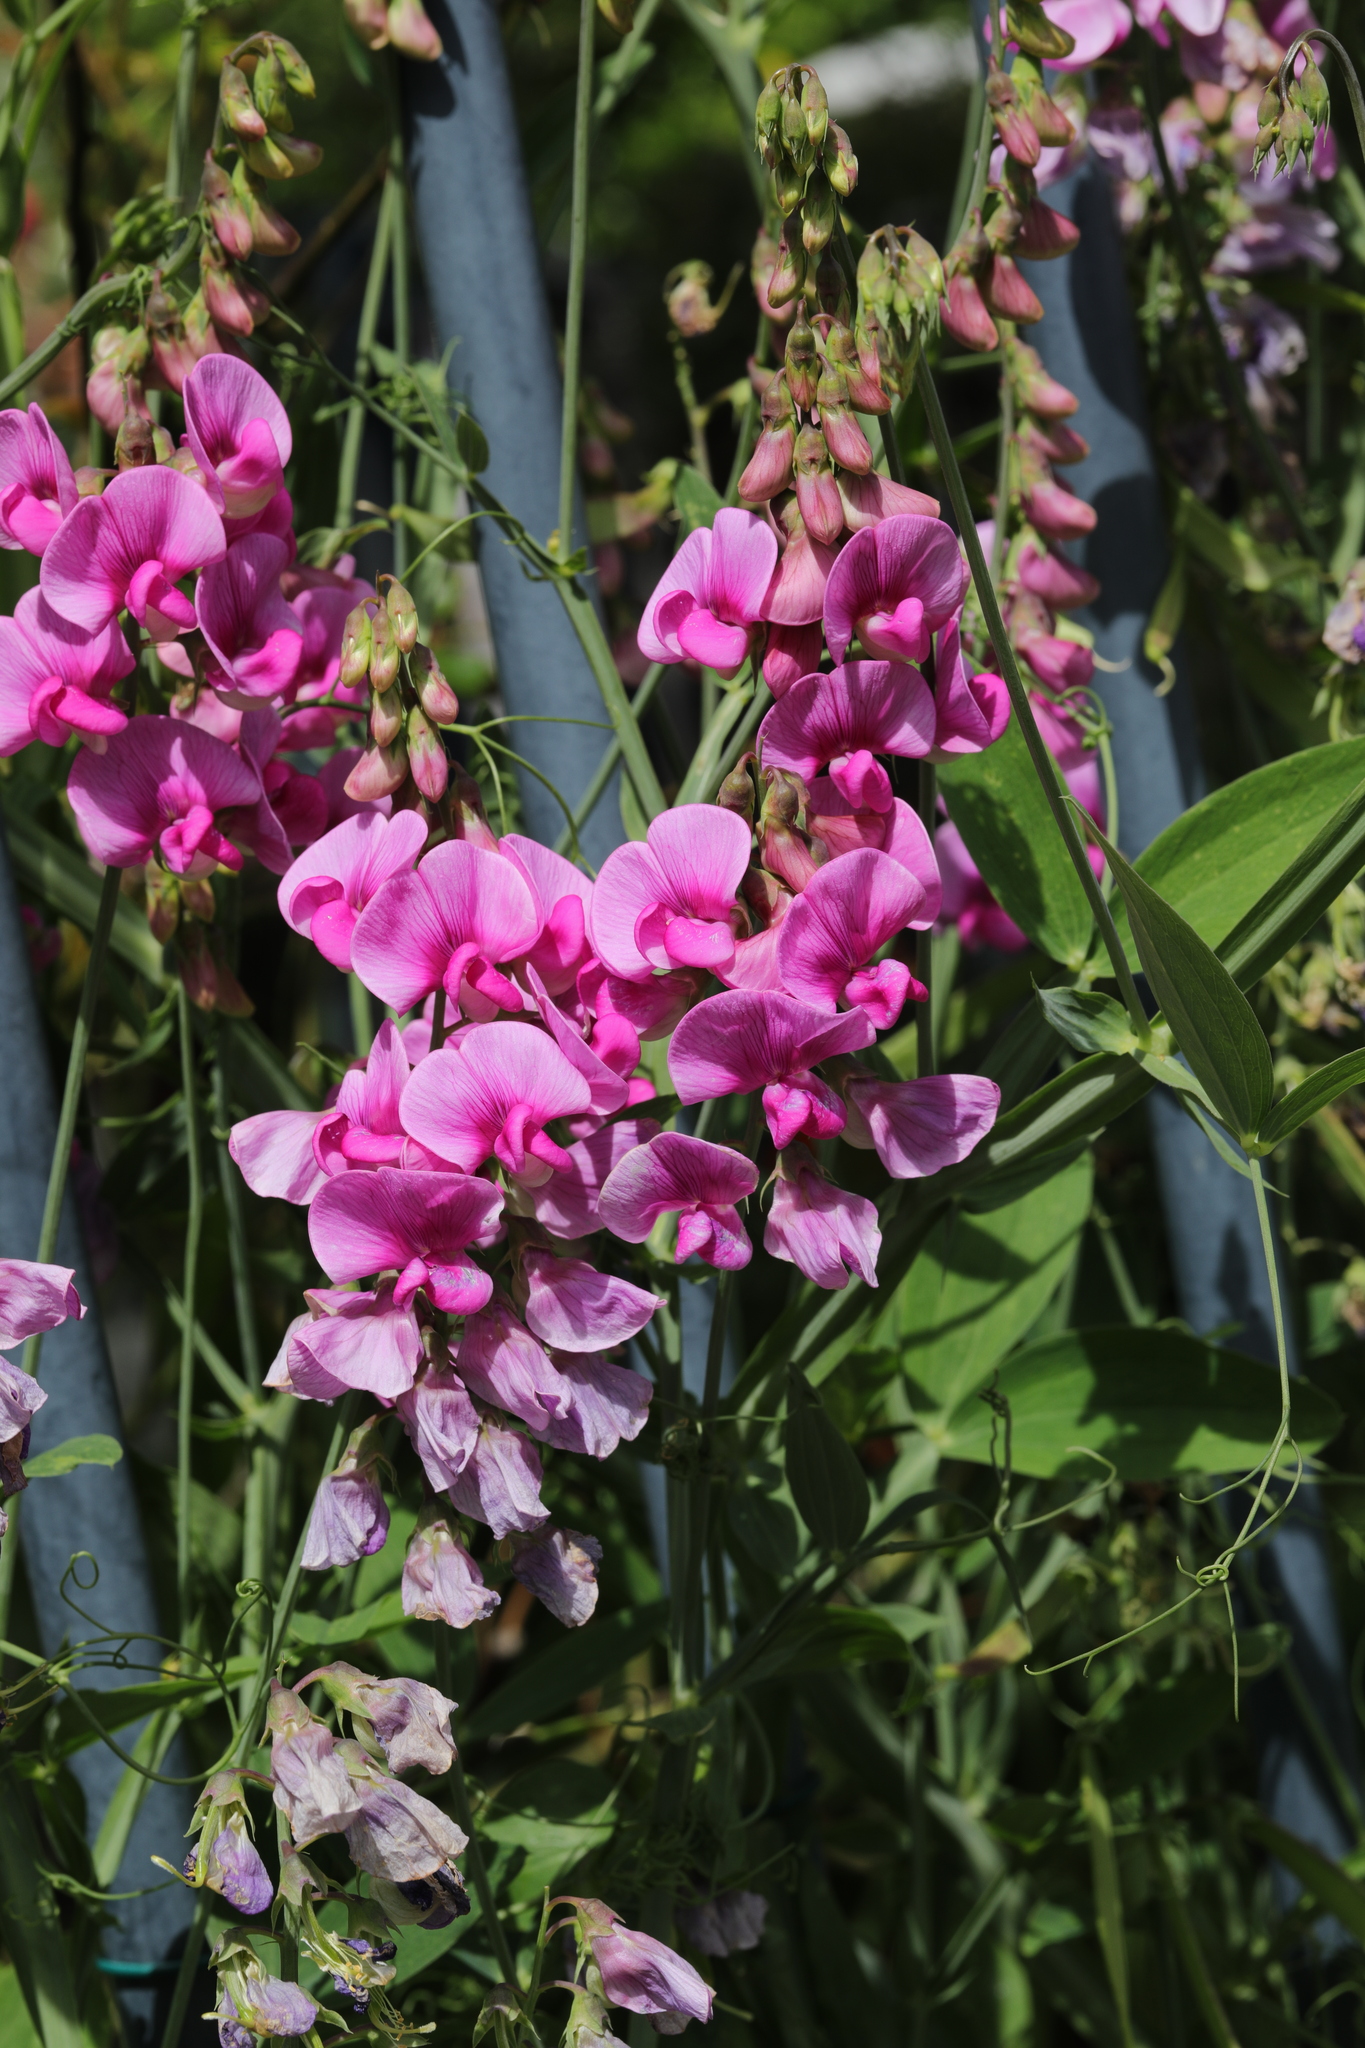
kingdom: Plantae
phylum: Tracheophyta
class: Magnoliopsida
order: Fabales
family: Fabaceae
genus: Lathyrus
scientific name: Lathyrus latifolius
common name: Perennial pea
